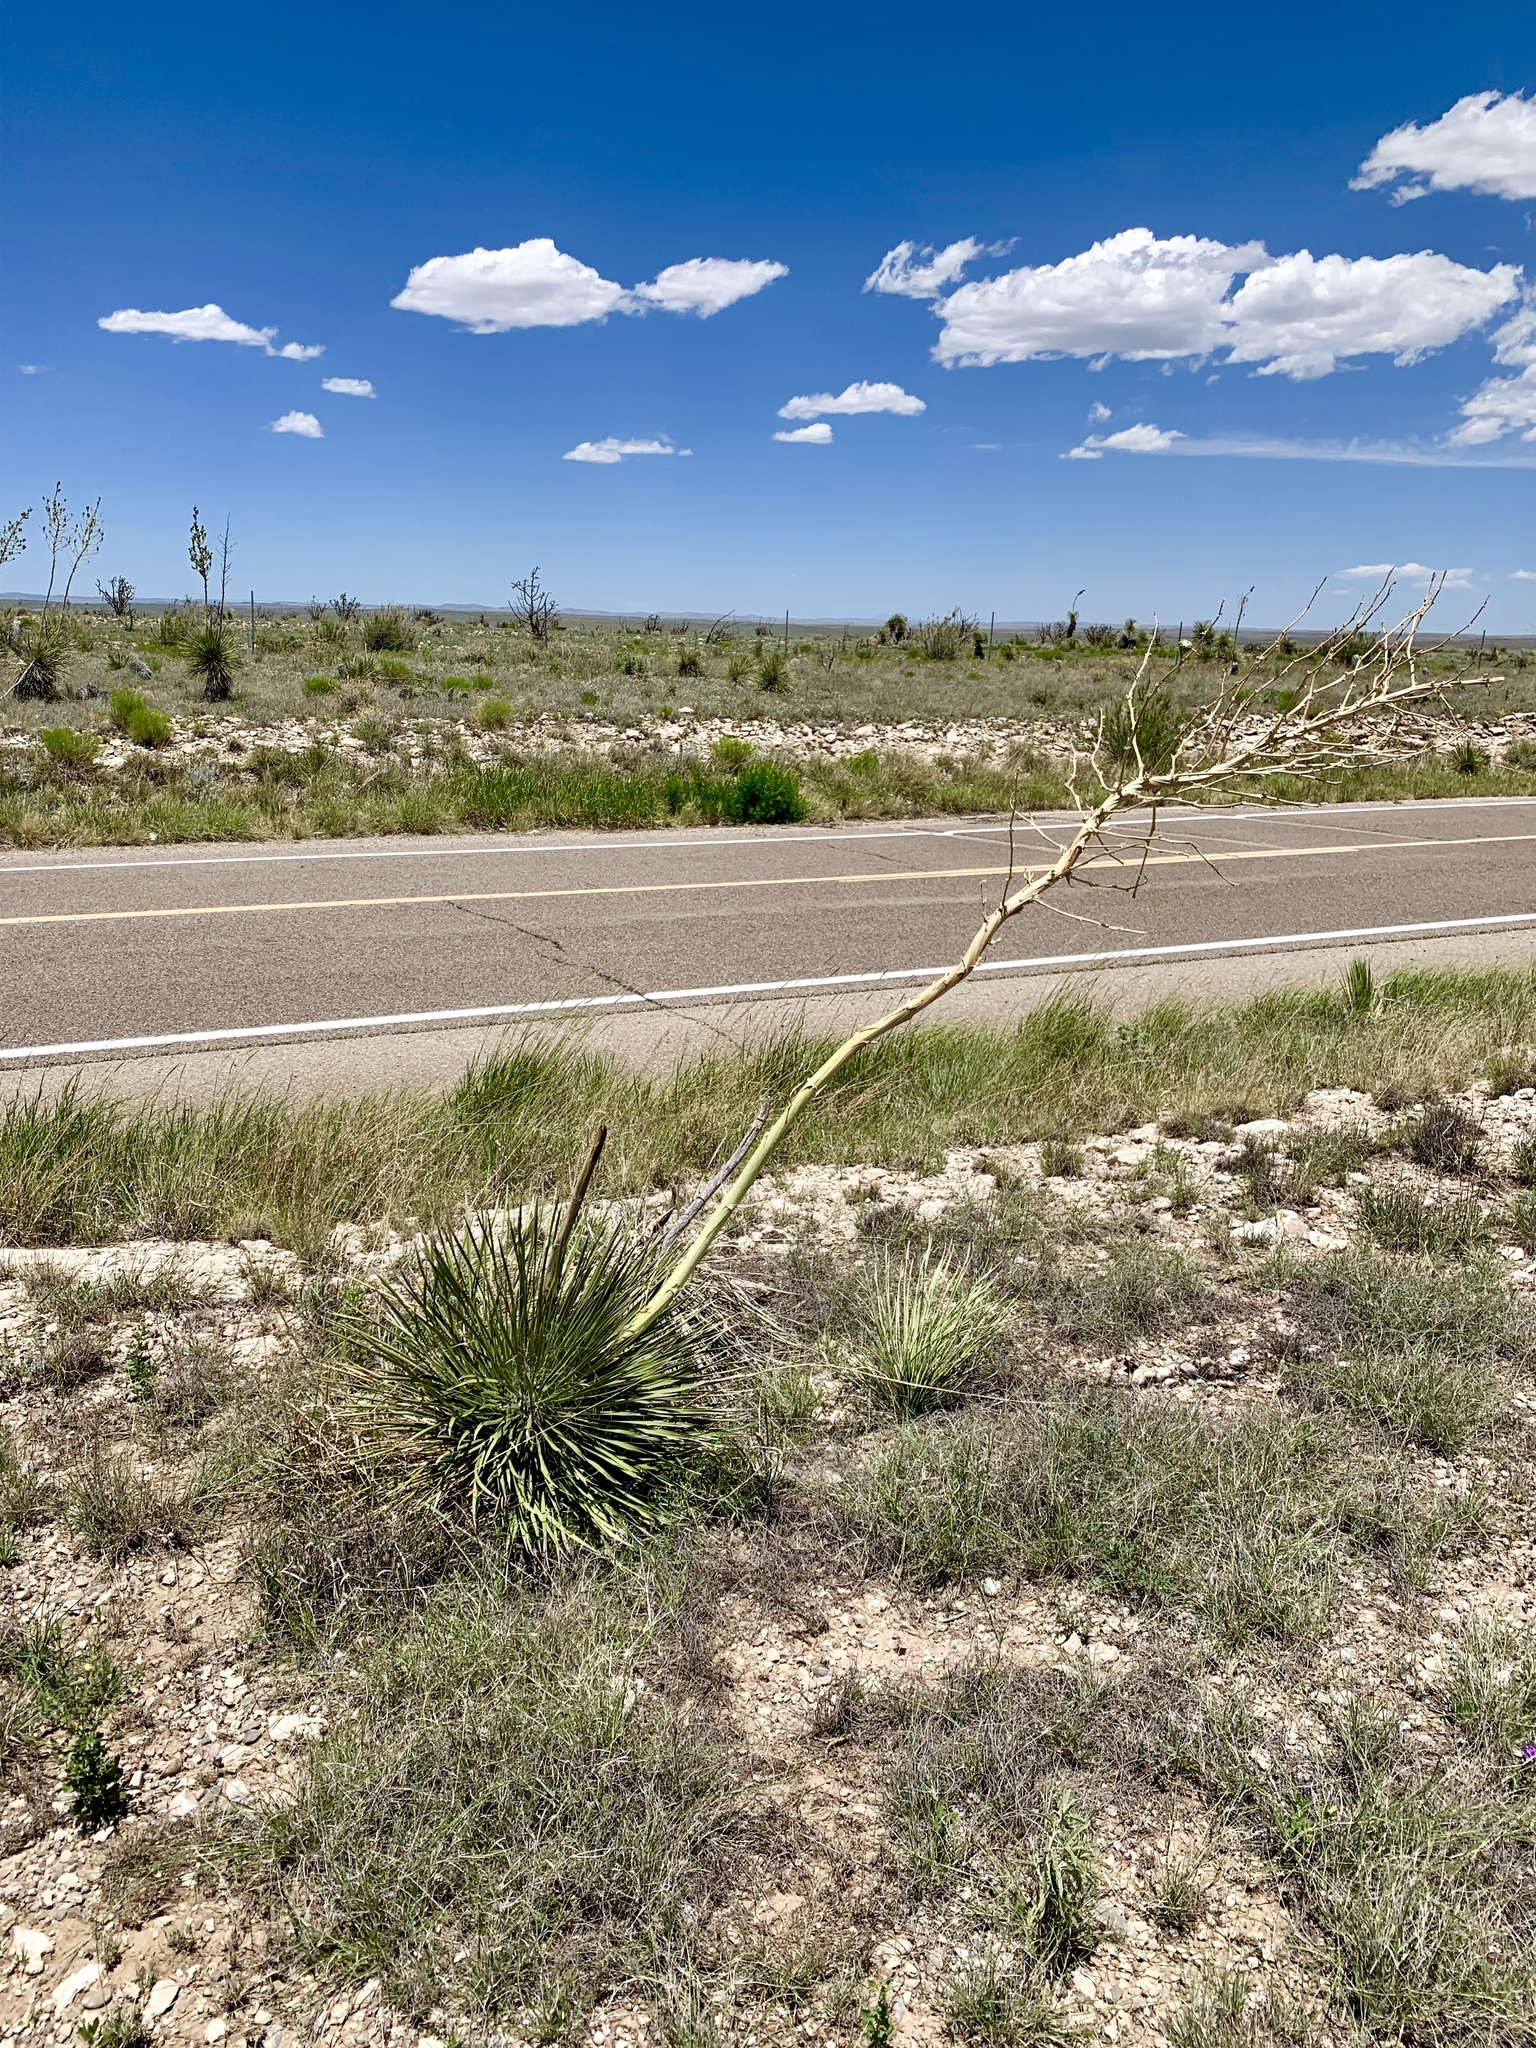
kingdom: Plantae
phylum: Tracheophyta
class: Liliopsida
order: Asparagales
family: Asparagaceae
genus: Yucca
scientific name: Yucca elata
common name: Palmella
